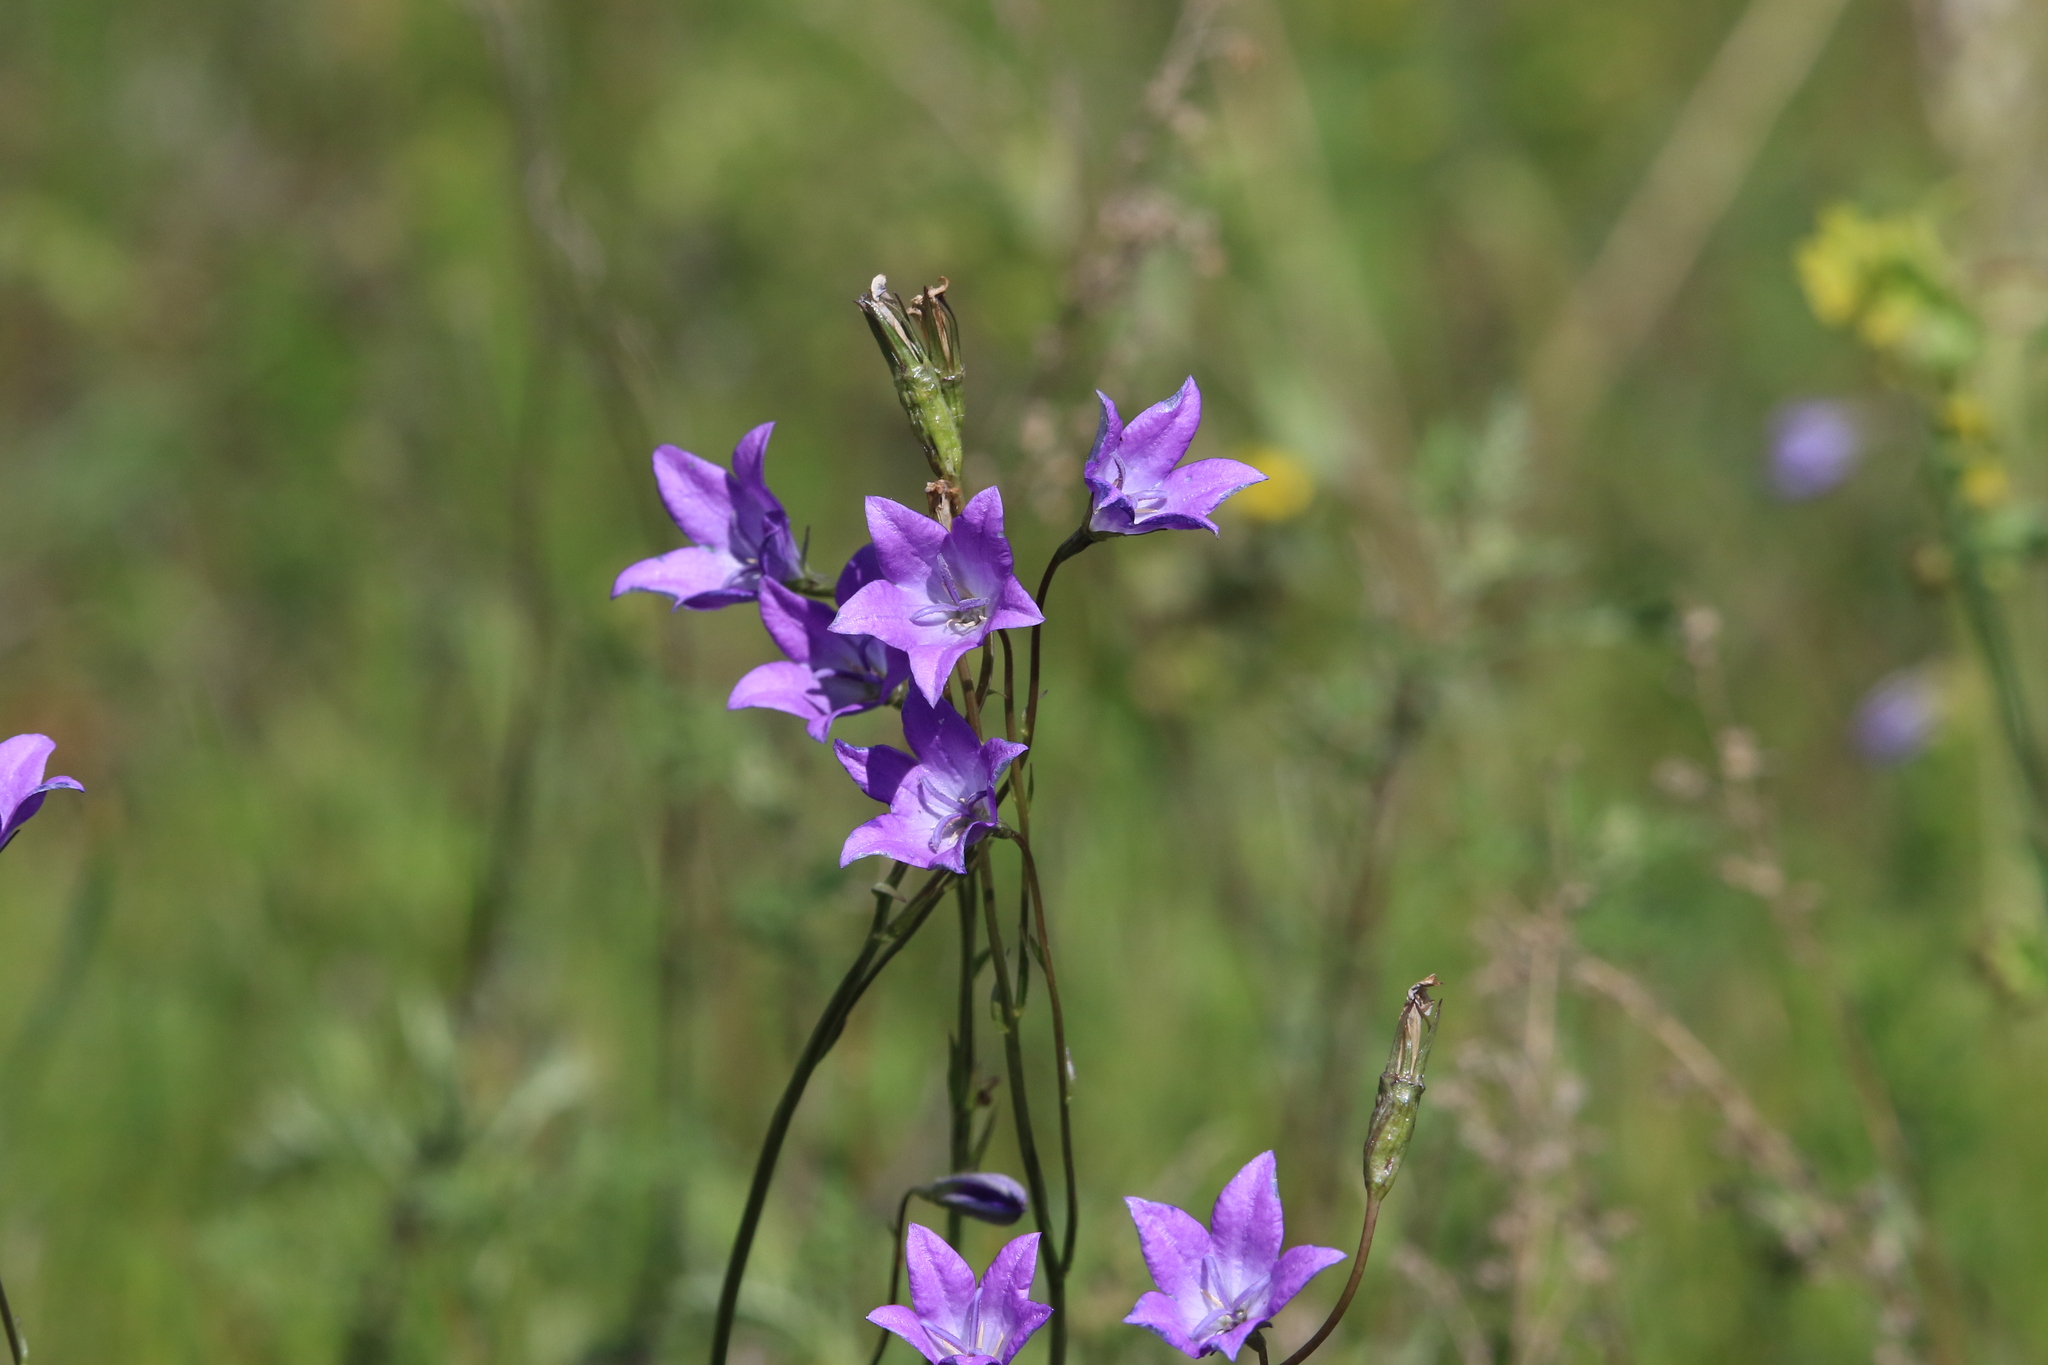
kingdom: Plantae
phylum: Tracheophyta
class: Magnoliopsida
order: Asterales
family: Campanulaceae
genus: Campanula
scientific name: Campanula stevenii
